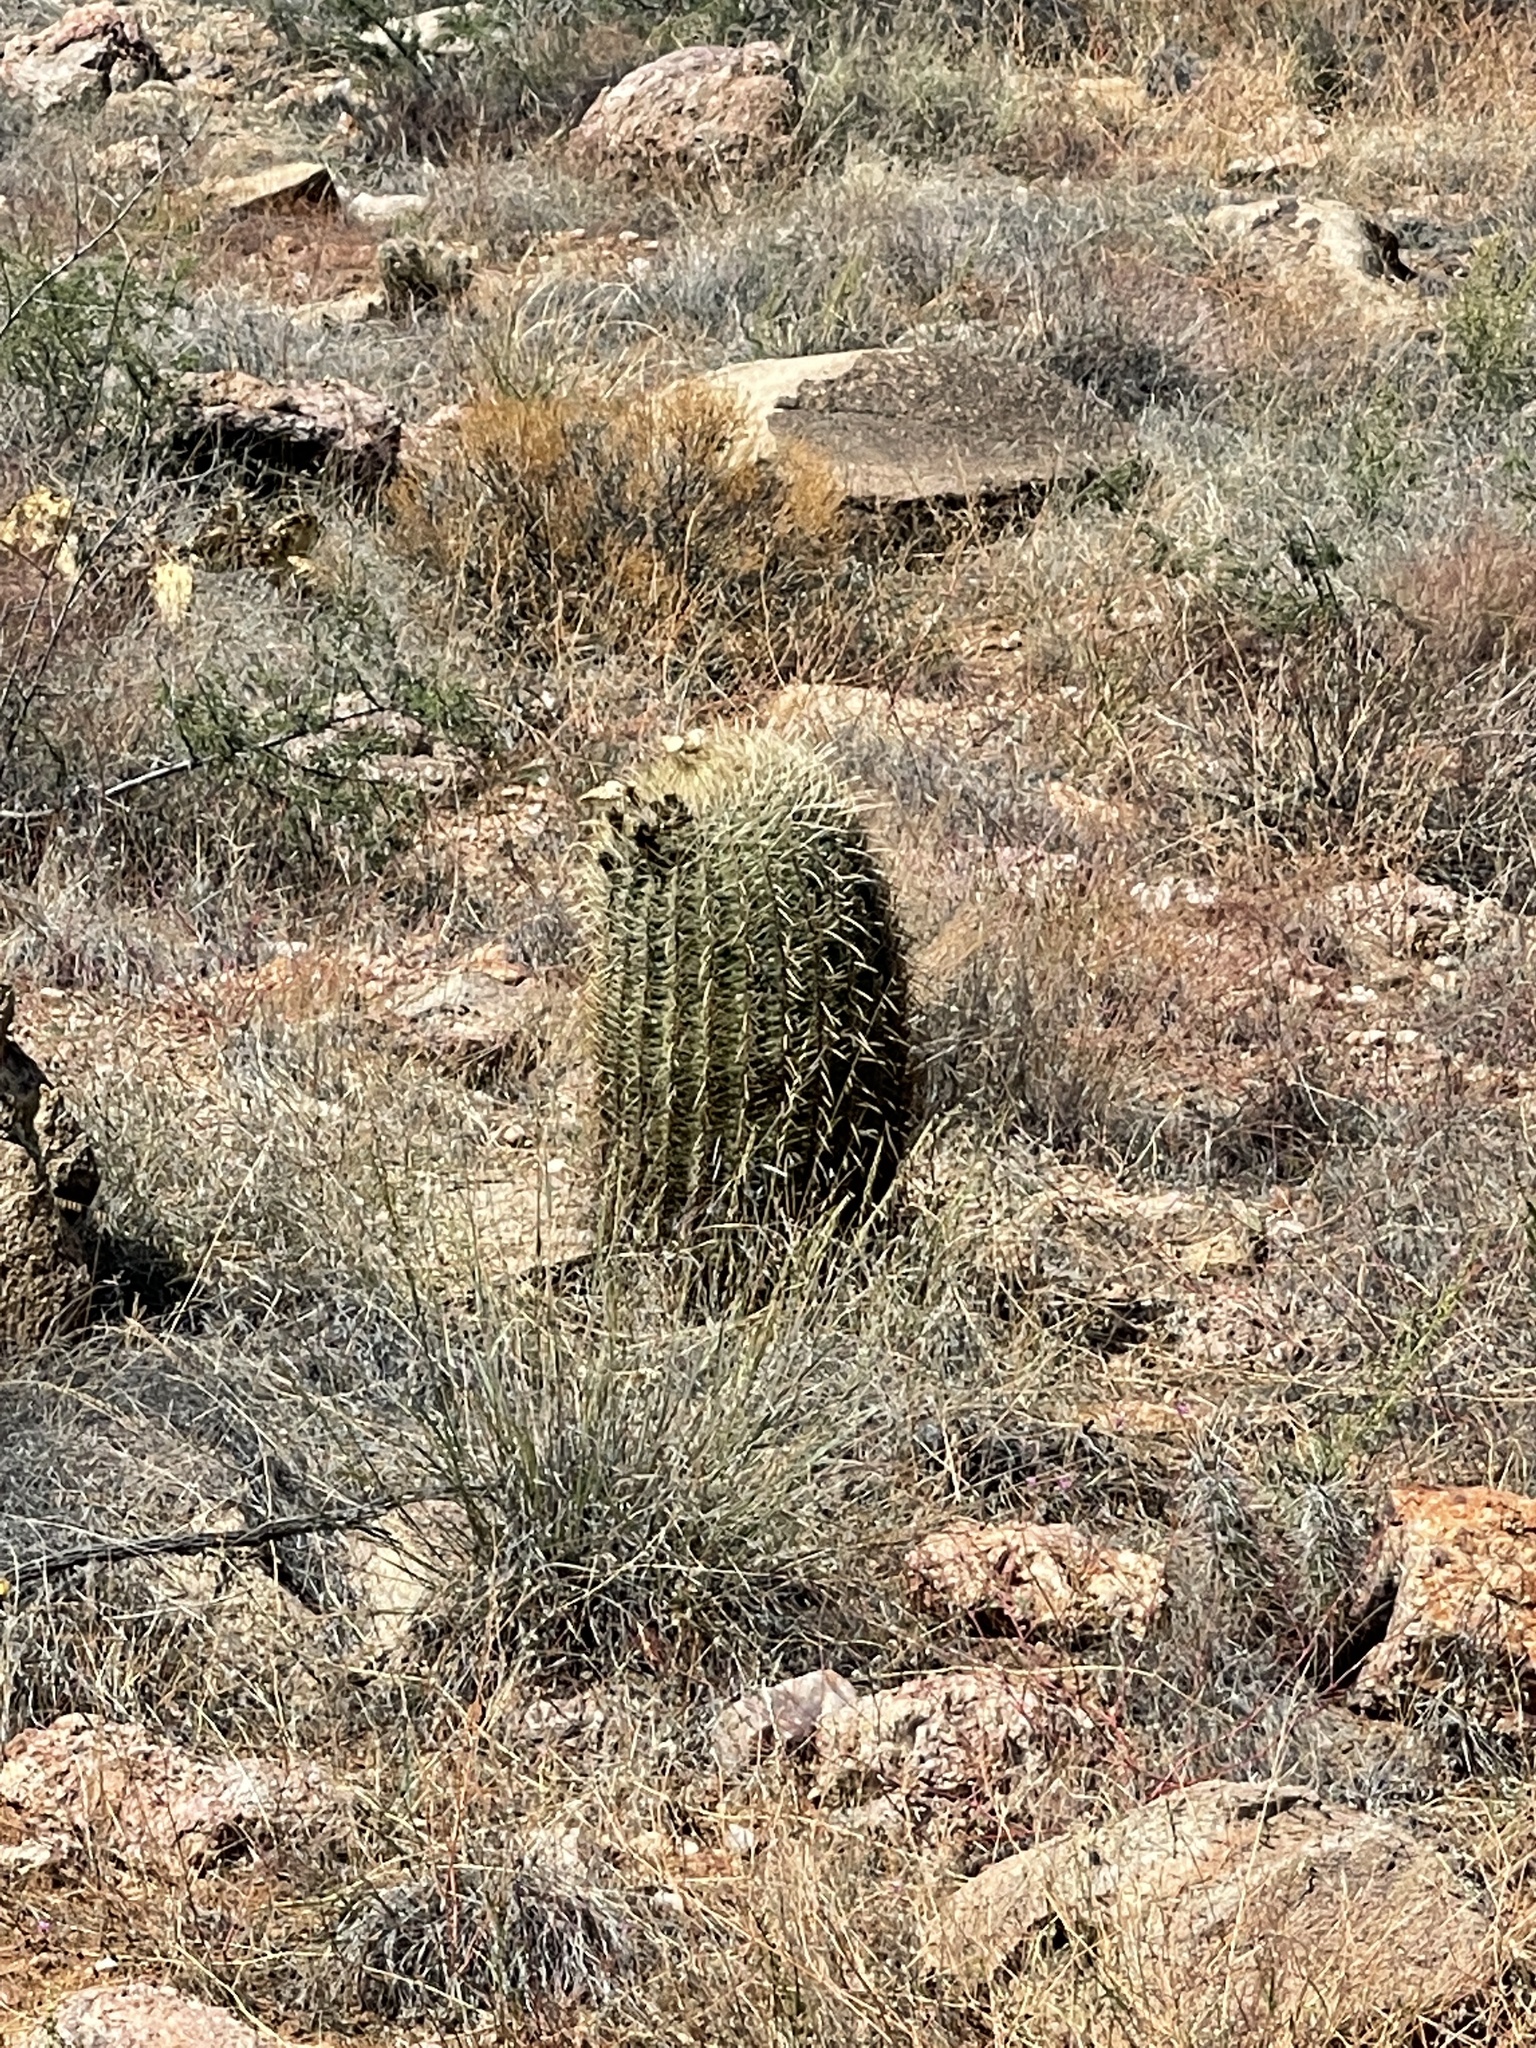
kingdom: Plantae
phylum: Tracheophyta
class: Magnoliopsida
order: Caryophyllales
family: Cactaceae
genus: Ferocactus
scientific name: Ferocactus cylindraceus
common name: California barrel cactus
